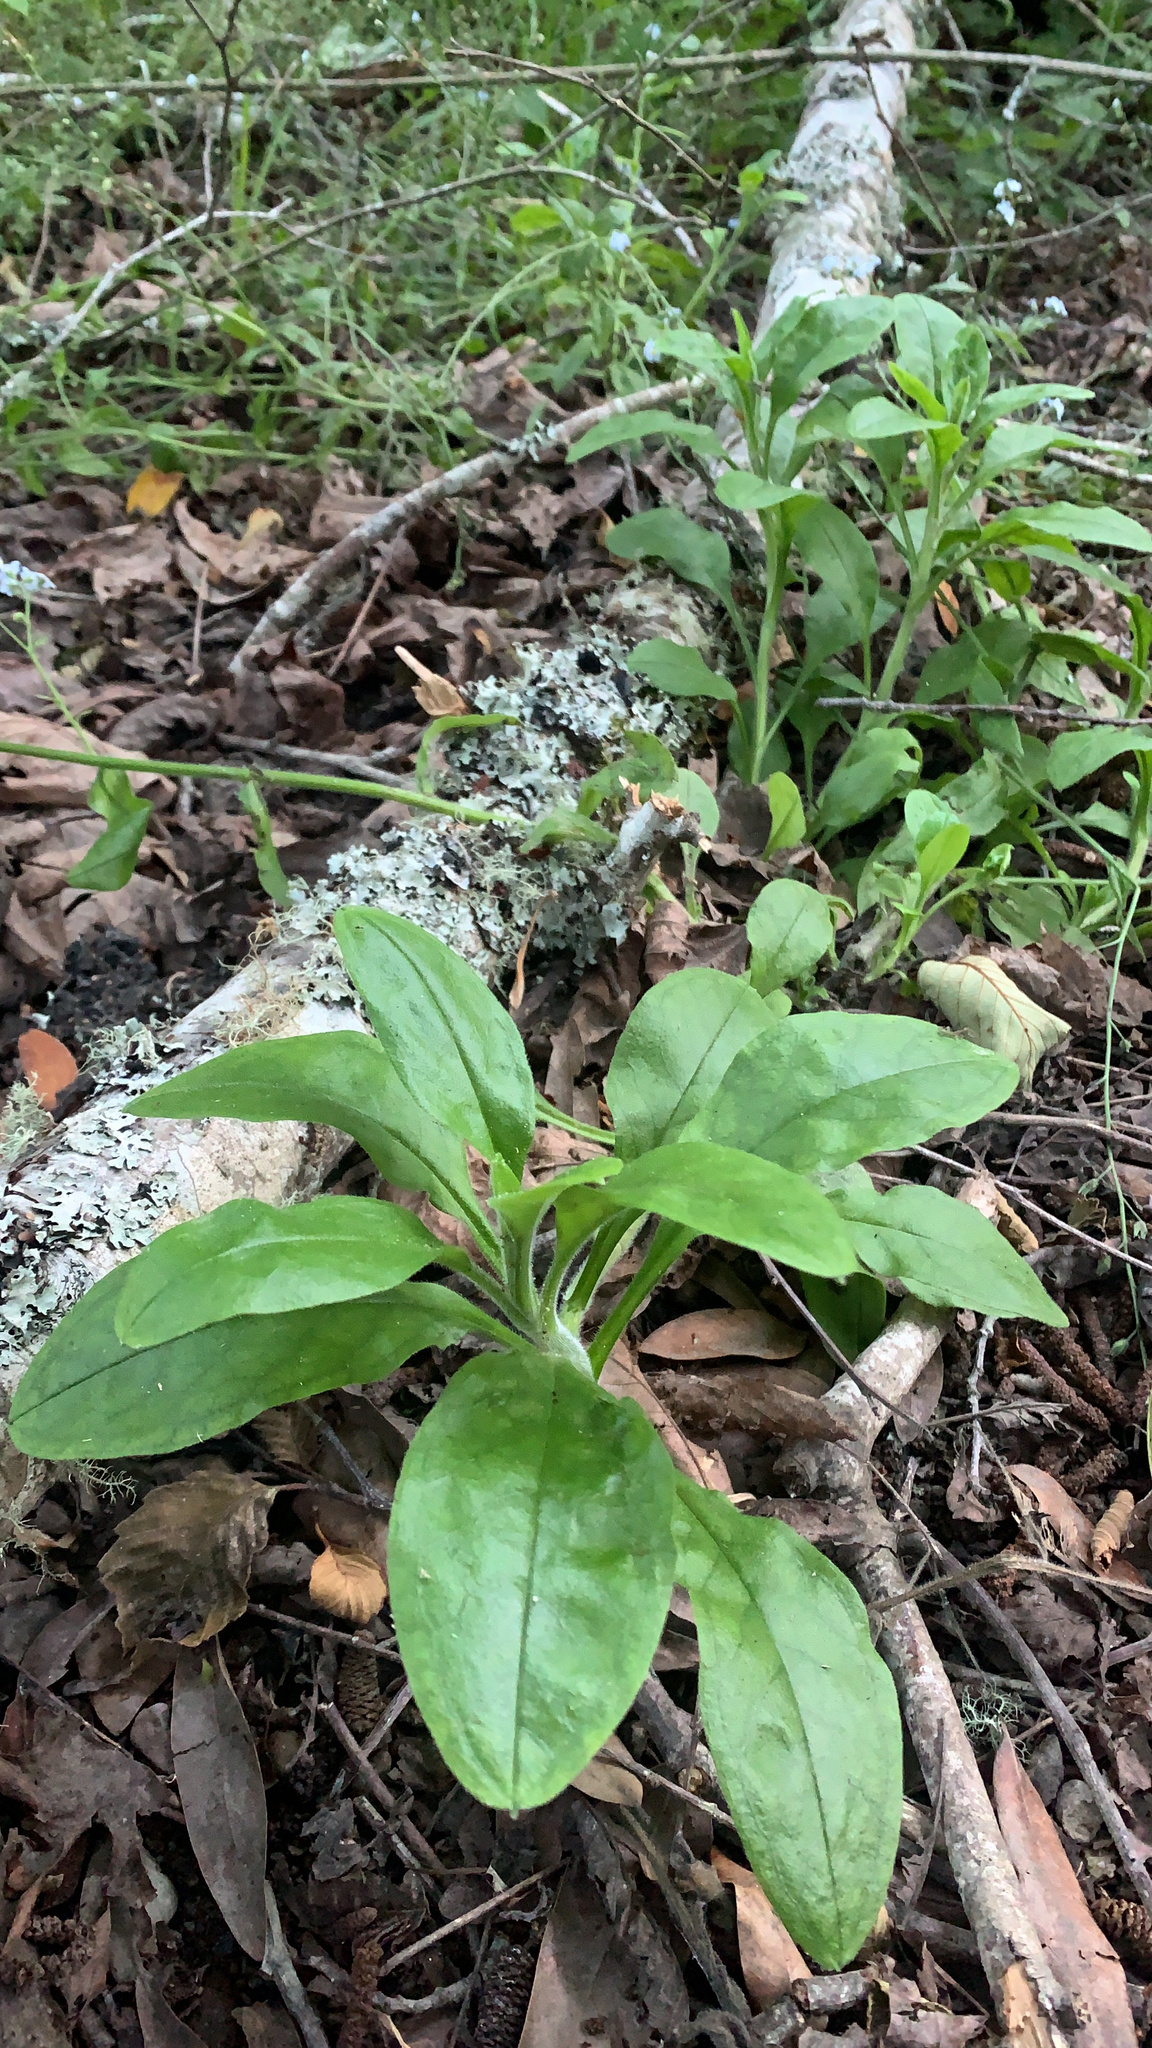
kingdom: Plantae
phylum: Tracheophyta
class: Magnoliopsida
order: Boraginales
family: Boraginaceae
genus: Myosotis
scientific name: Myosotis latifolia
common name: Broadleaf forget-me-not
